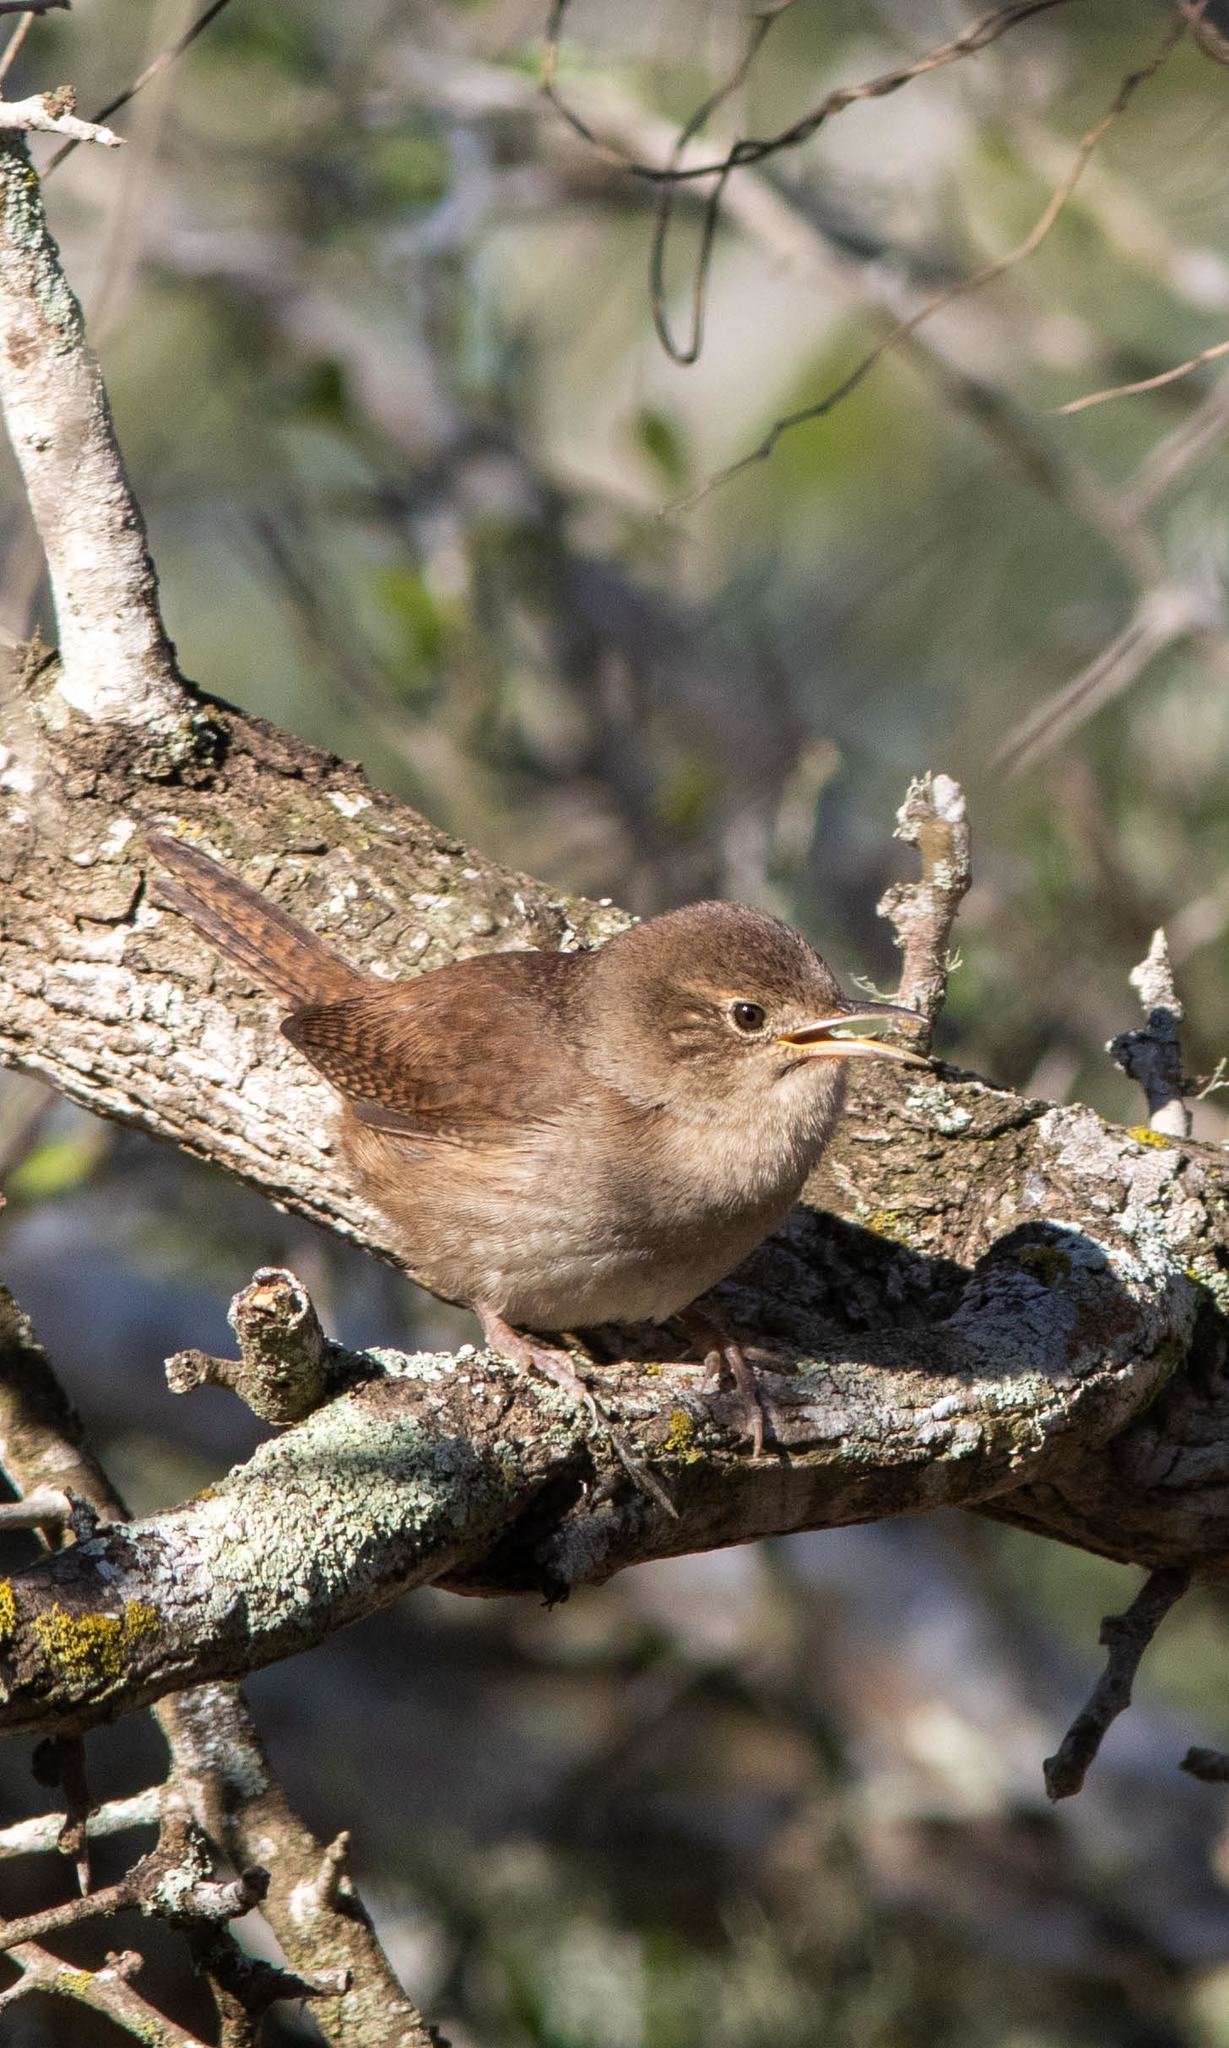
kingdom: Animalia
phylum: Chordata
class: Aves
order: Passeriformes
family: Troglodytidae
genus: Troglodytes
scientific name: Troglodytes aedon
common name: House wren
